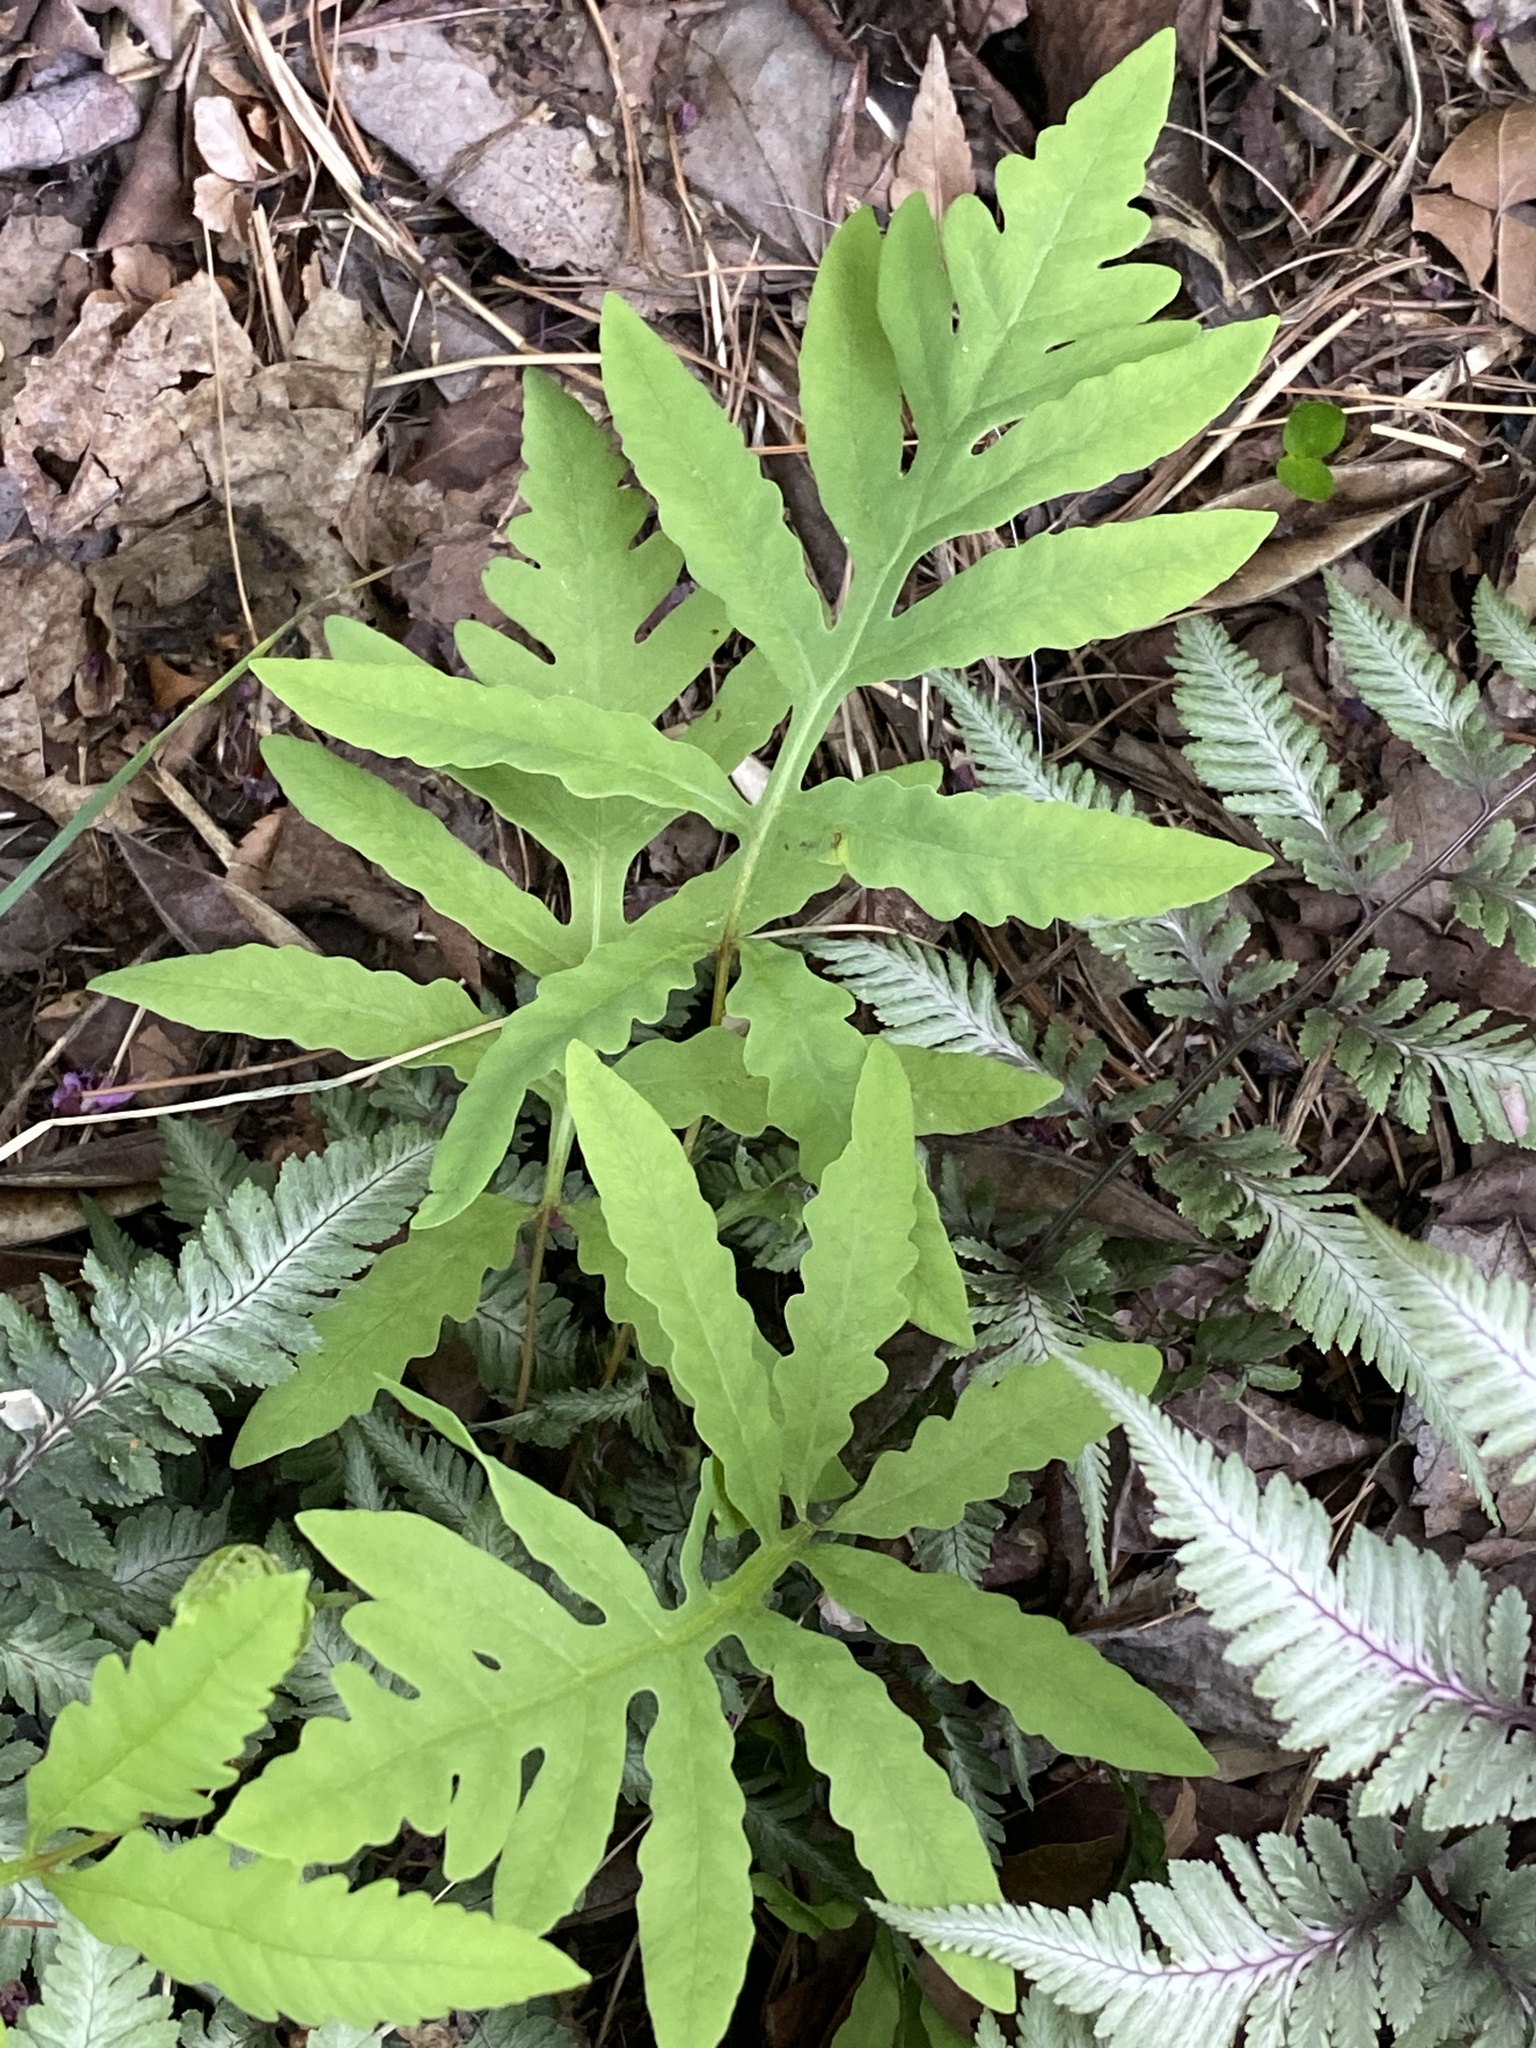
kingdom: Plantae
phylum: Tracheophyta
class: Polypodiopsida
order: Polypodiales
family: Onocleaceae
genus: Onoclea
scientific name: Onoclea sensibilis
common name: Sensitive fern
